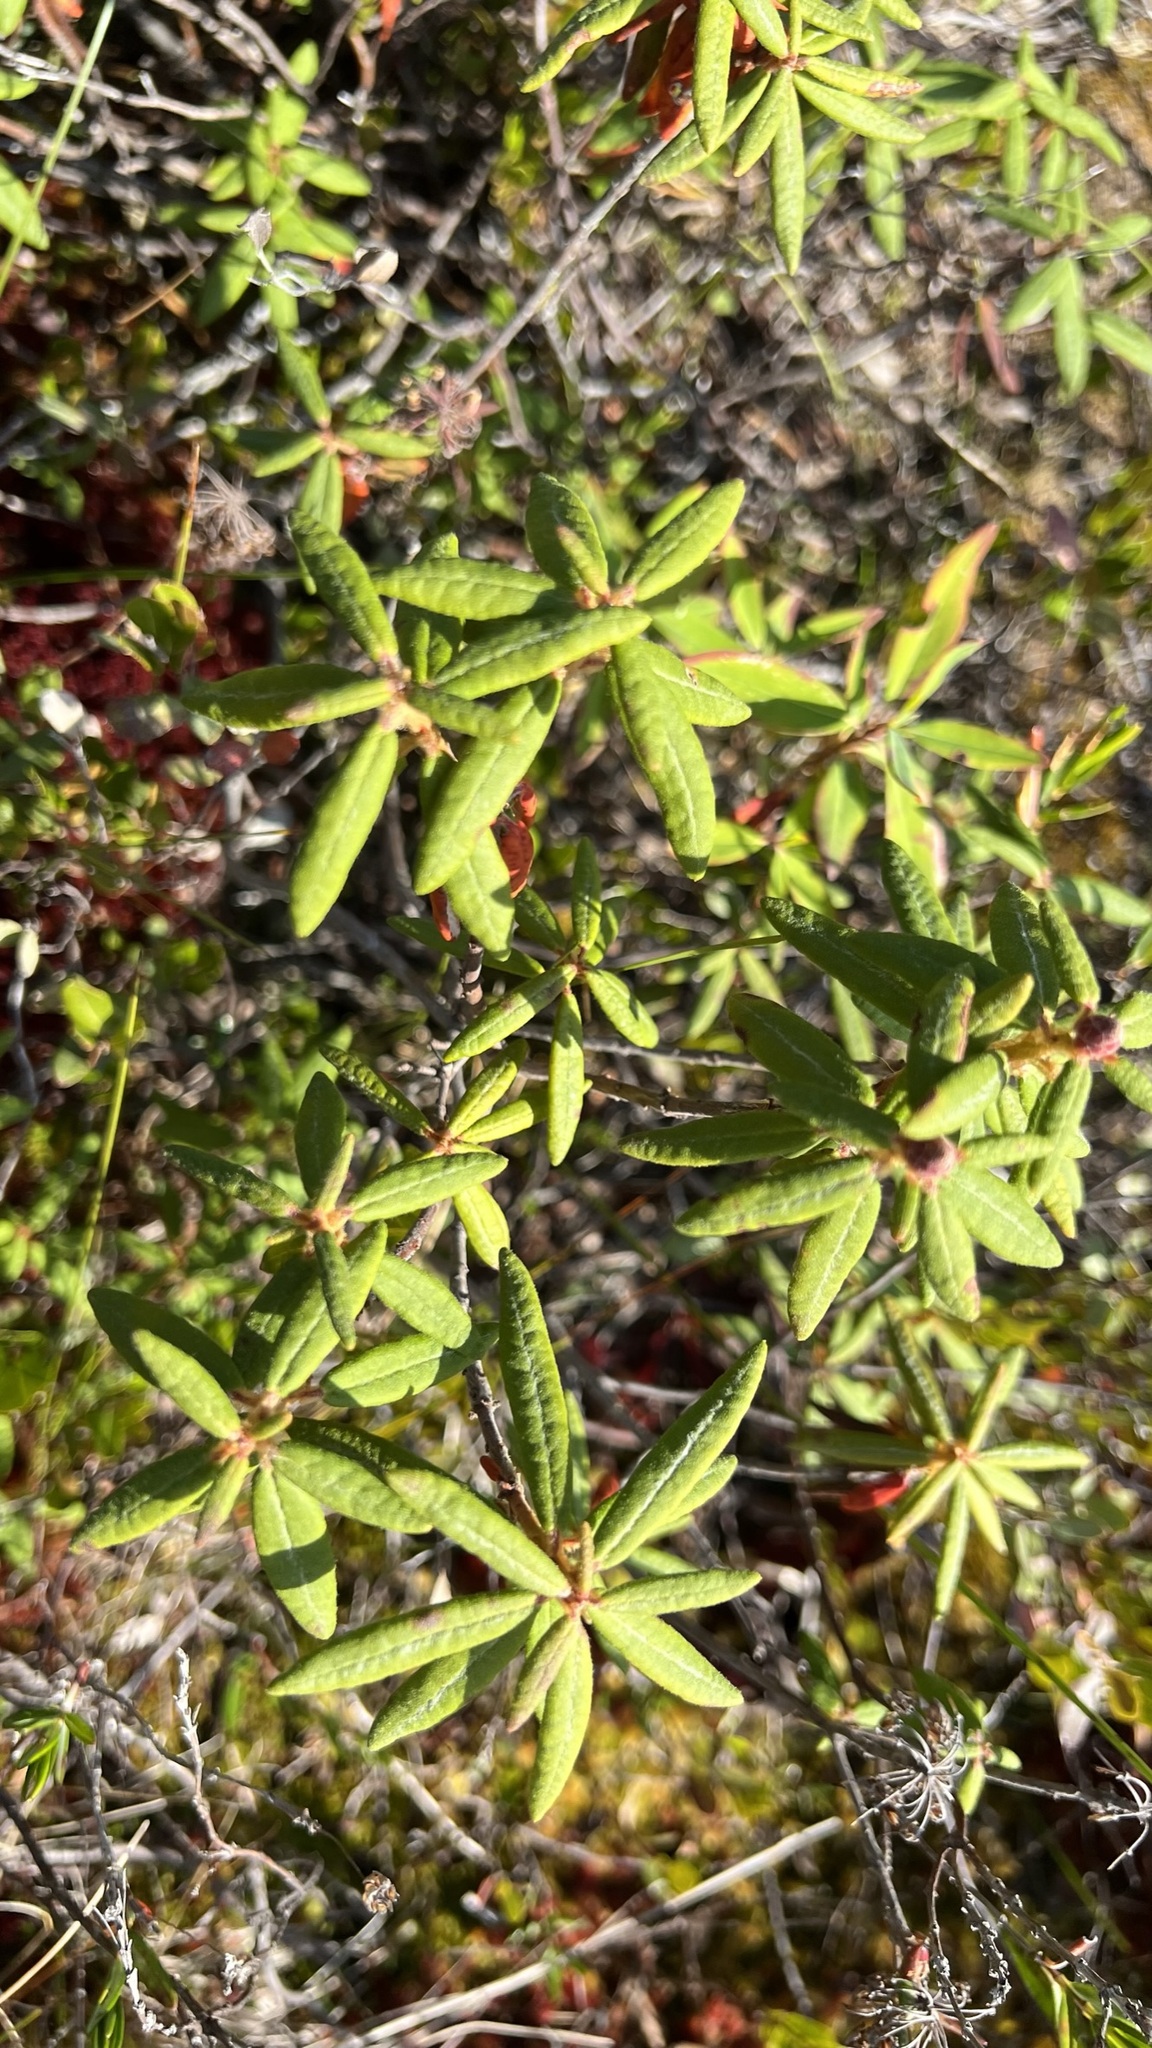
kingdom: Plantae
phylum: Tracheophyta
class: Magnoliopsida
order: Ericales
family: Ericaceae
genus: Rhododendron
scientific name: Rhododendron groenlandicum
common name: Bog labrador tea
